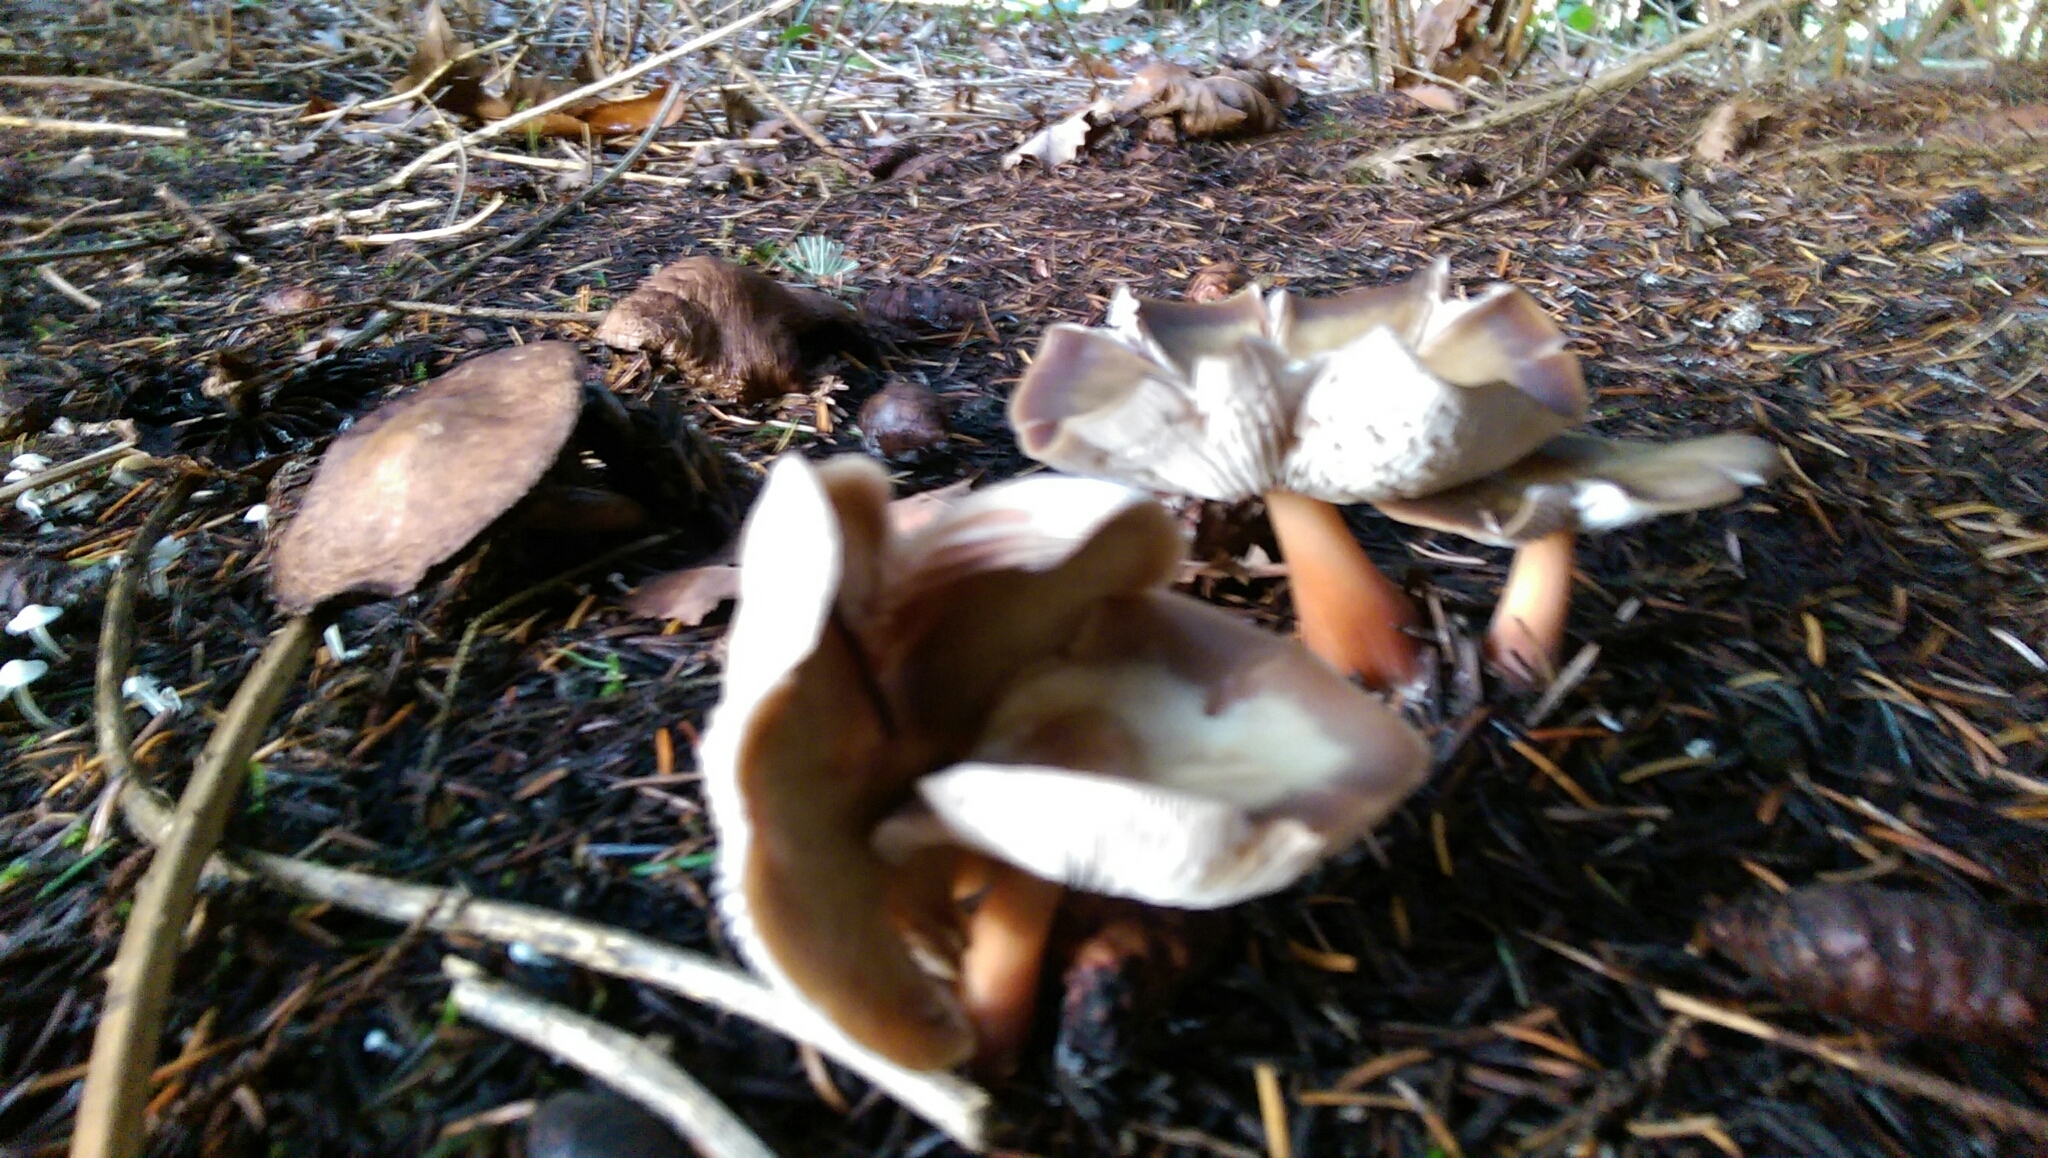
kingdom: Fungi
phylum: Basidiomycota
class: Agaricomycetes
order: Agaricales
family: Omphalotaceae
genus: Rhodocollybia
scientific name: Rhodocollybia butyracea
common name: Butter cap
